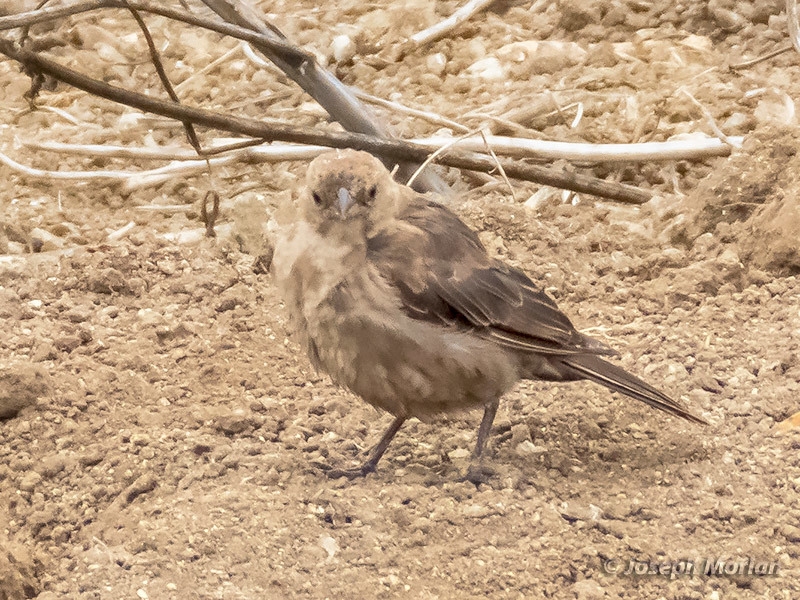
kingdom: Animalia
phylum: Chordata
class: Aves
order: Passeriformes
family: Icteridae
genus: Molothrus
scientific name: Molothrus ater
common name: Brown-headed cowbird
